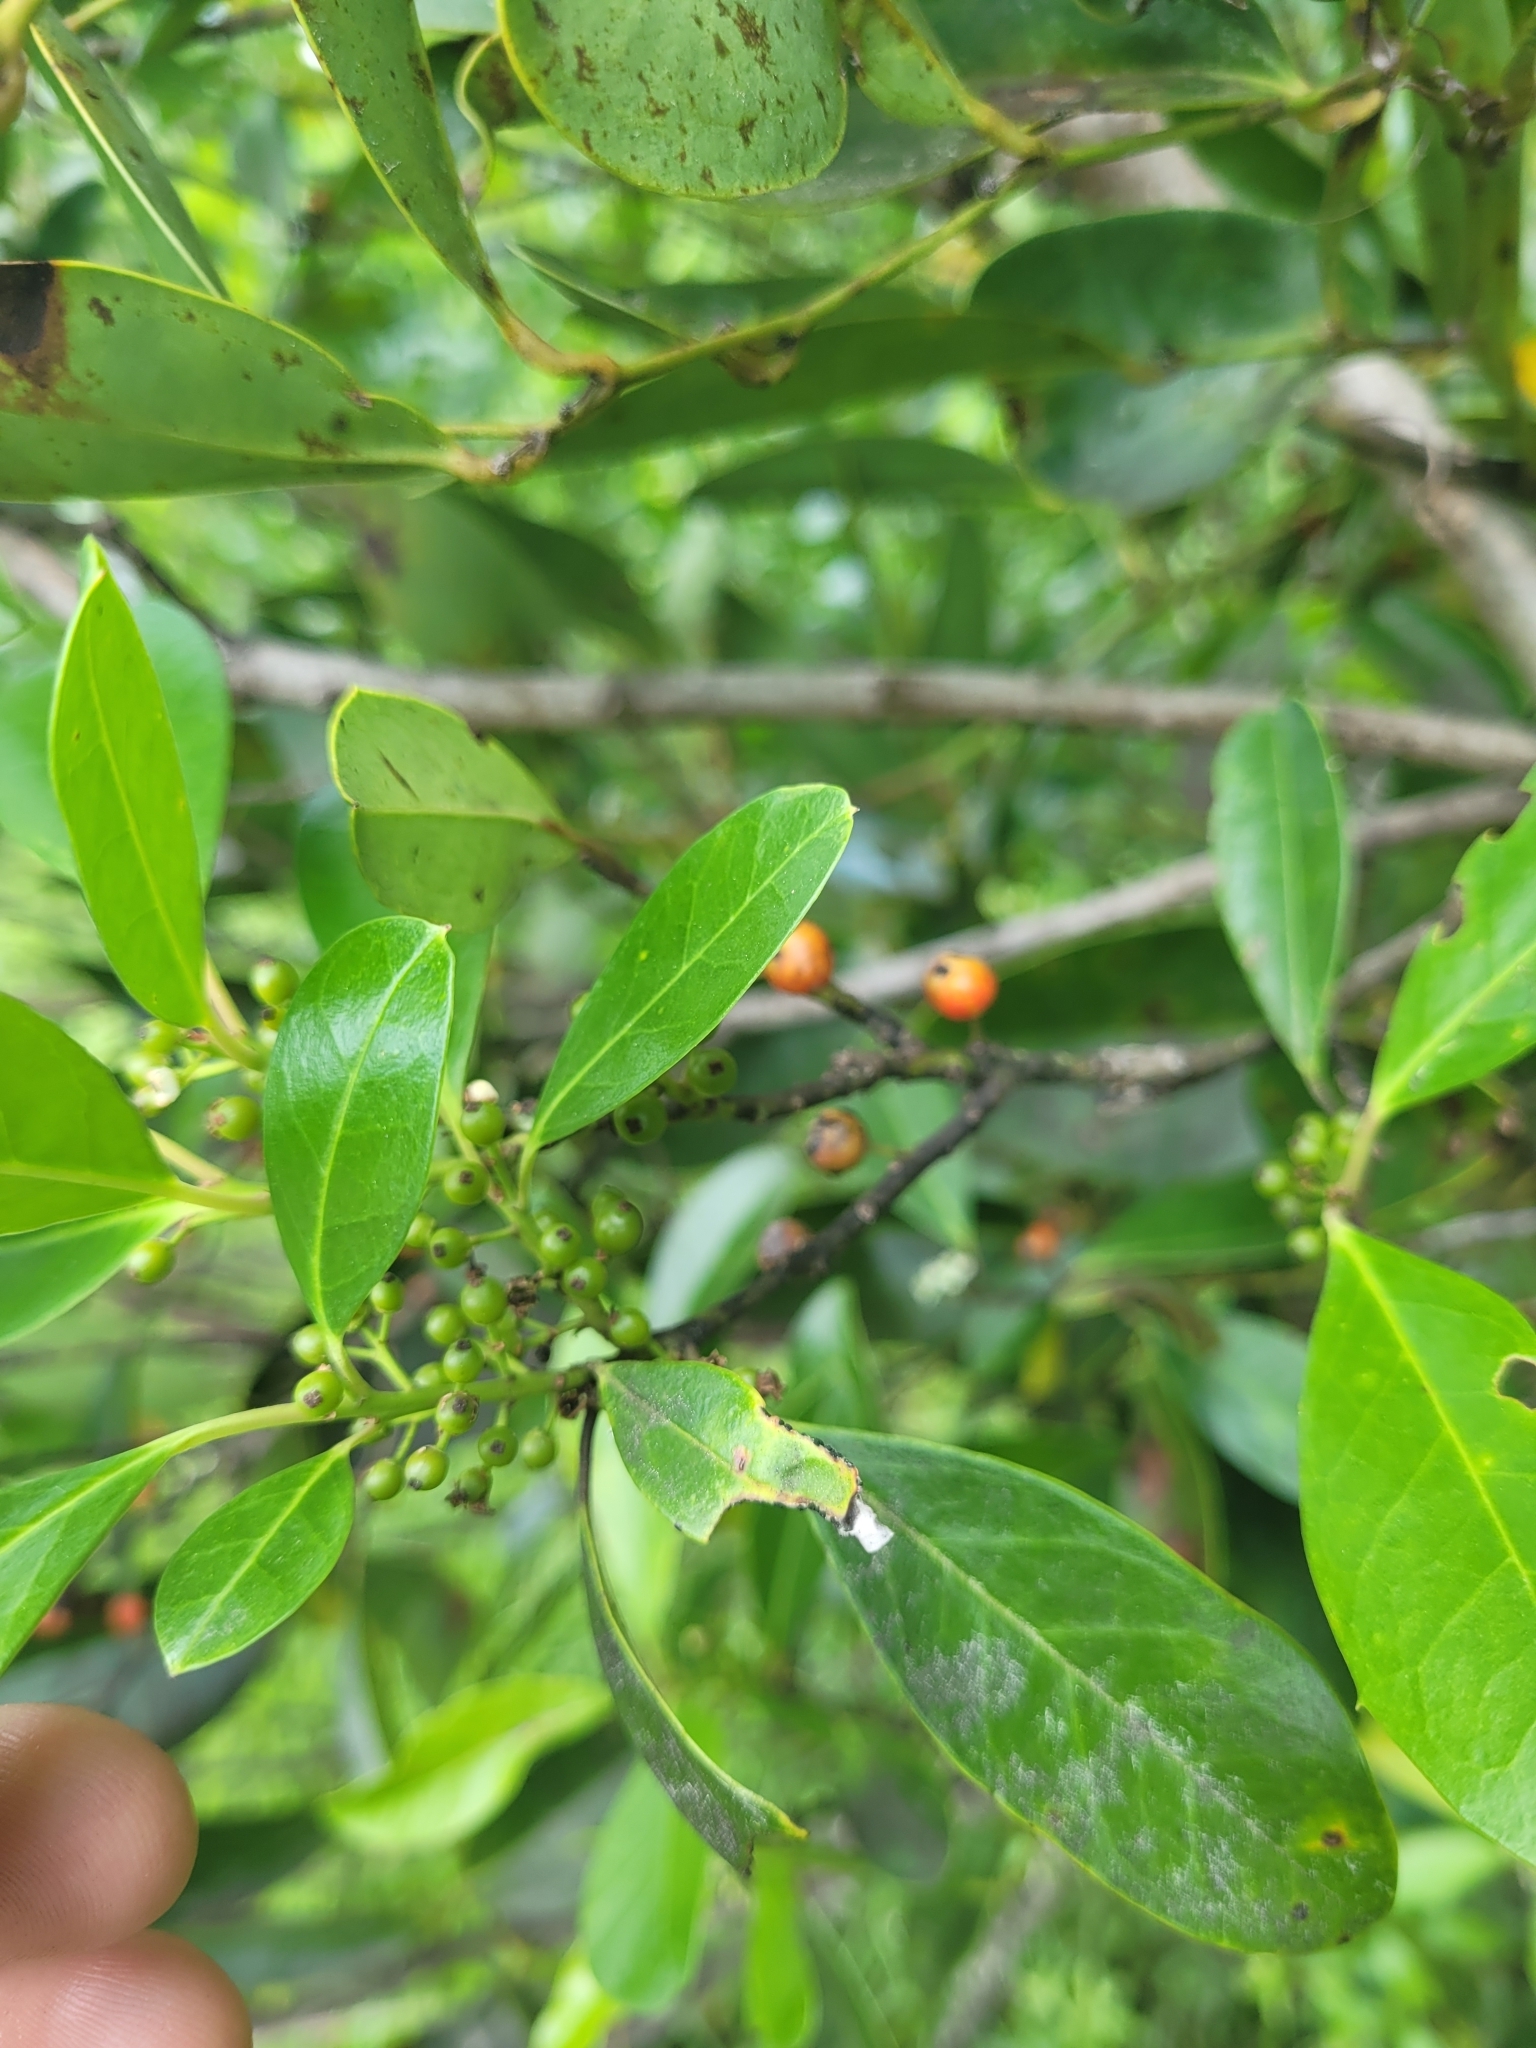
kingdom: Plantae
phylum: Tracheophyta
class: Magnoliopsida
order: Aquifoliales
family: Aquifoliaceae
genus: Ilex
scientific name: Ilex cassine
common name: Dahoon
